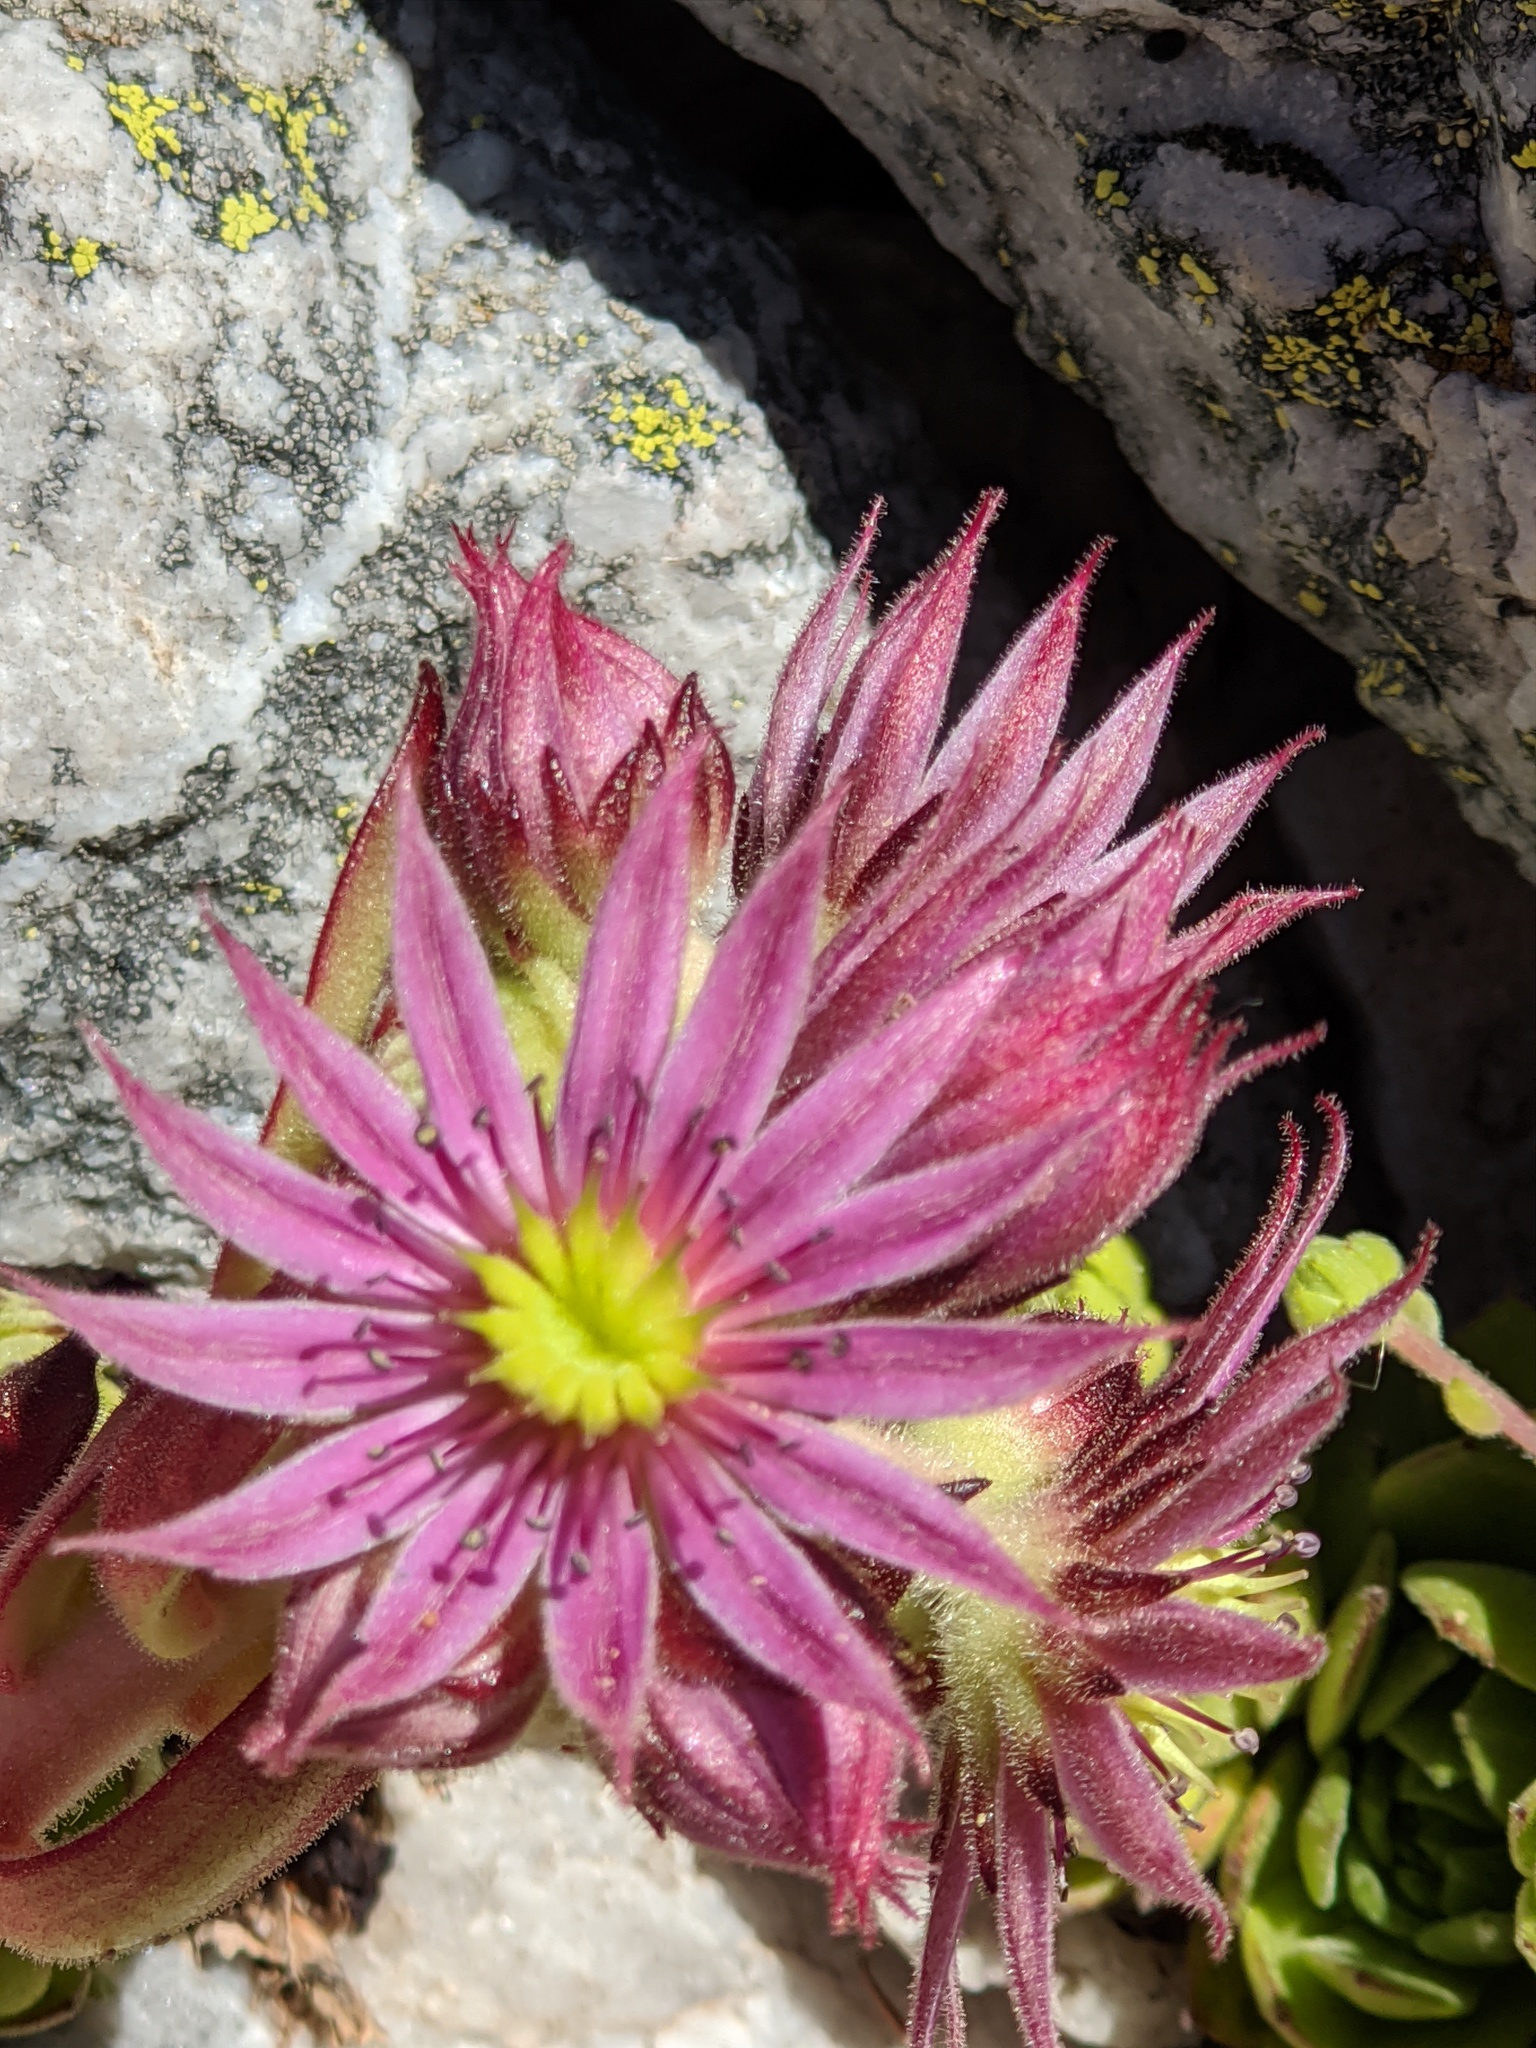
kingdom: Plantae
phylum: Tracheophyta
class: Magnoliopsida
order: Saxifragales
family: Crassulaceae
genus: Sempervivum
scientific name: Sempervivum montanum
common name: Mountain house-leek
